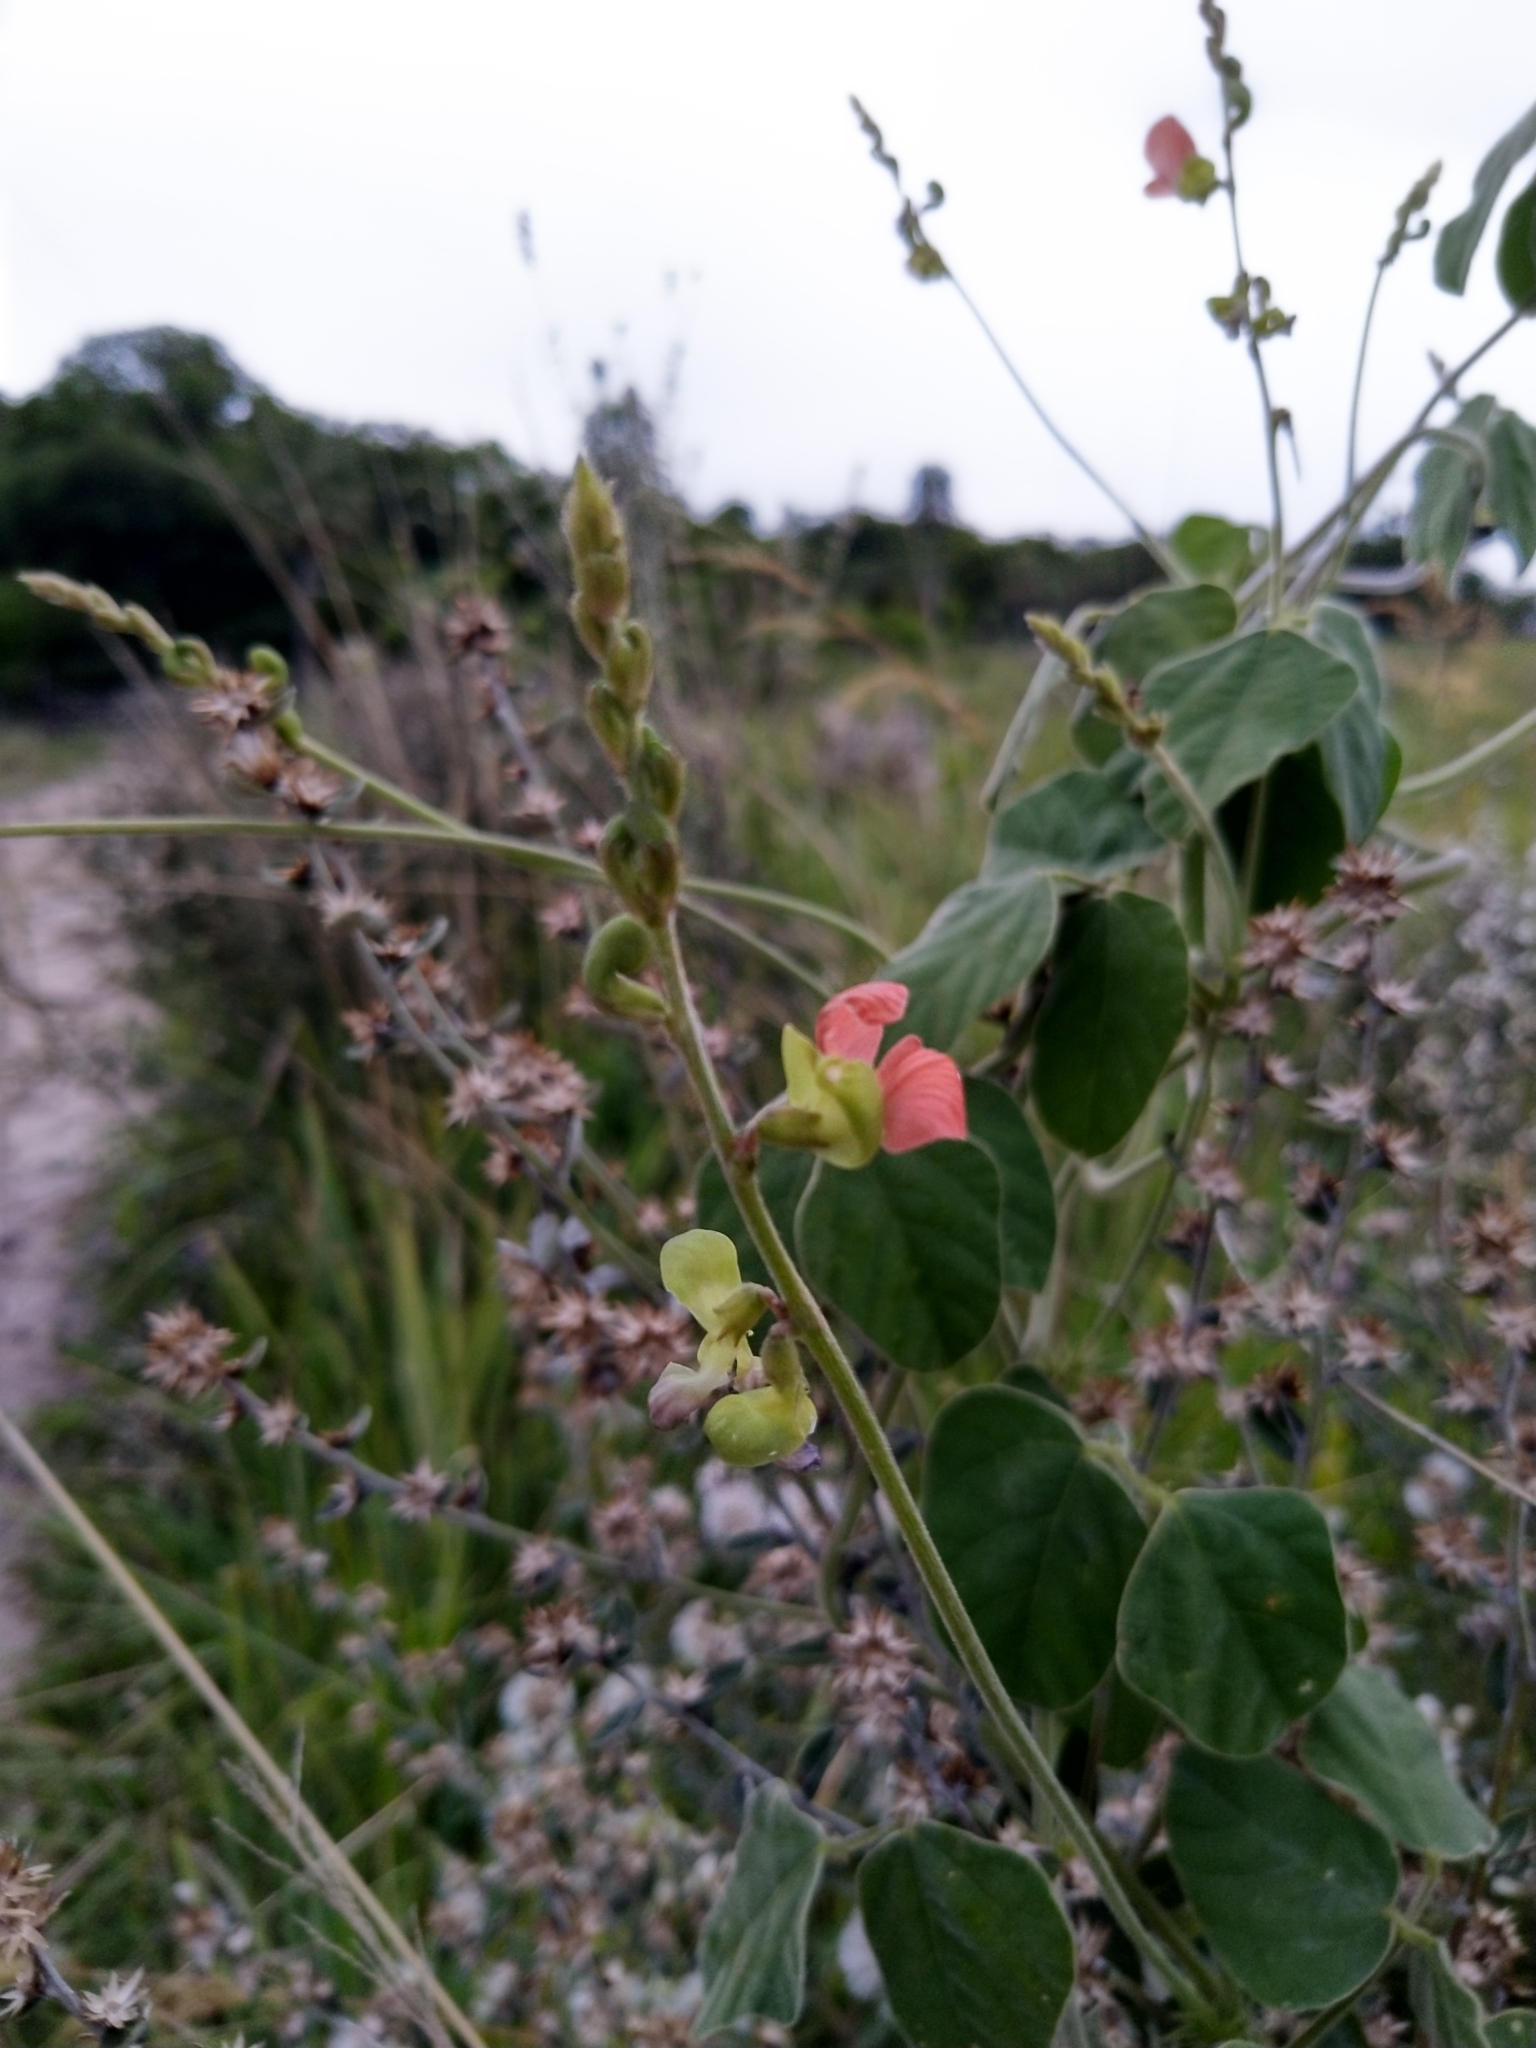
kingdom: Plantae
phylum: Tracheophyta
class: Magnoliopsida
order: Fabales
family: Fabaceae
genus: Macroptilium
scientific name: Macroptilium erythroloma
